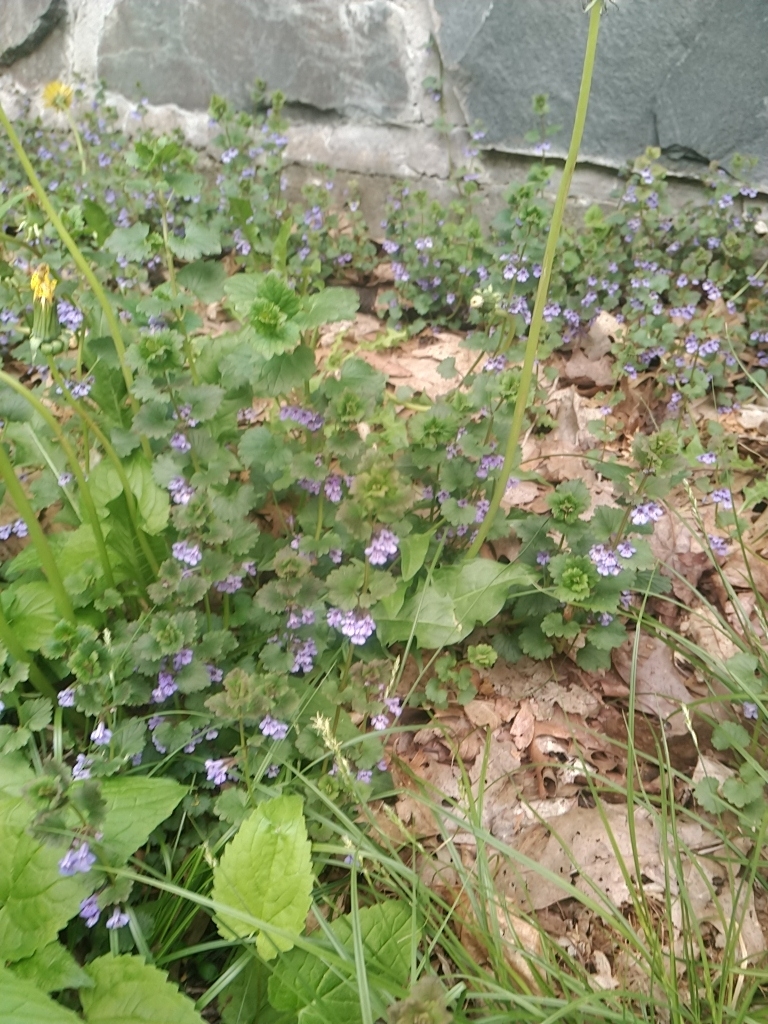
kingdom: Plantae
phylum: Tracheophyta
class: Magnoliopsida
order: Lamiales
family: Lamiaceae
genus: Glechoma
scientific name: Glechoma hederacea
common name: Ground ivy
